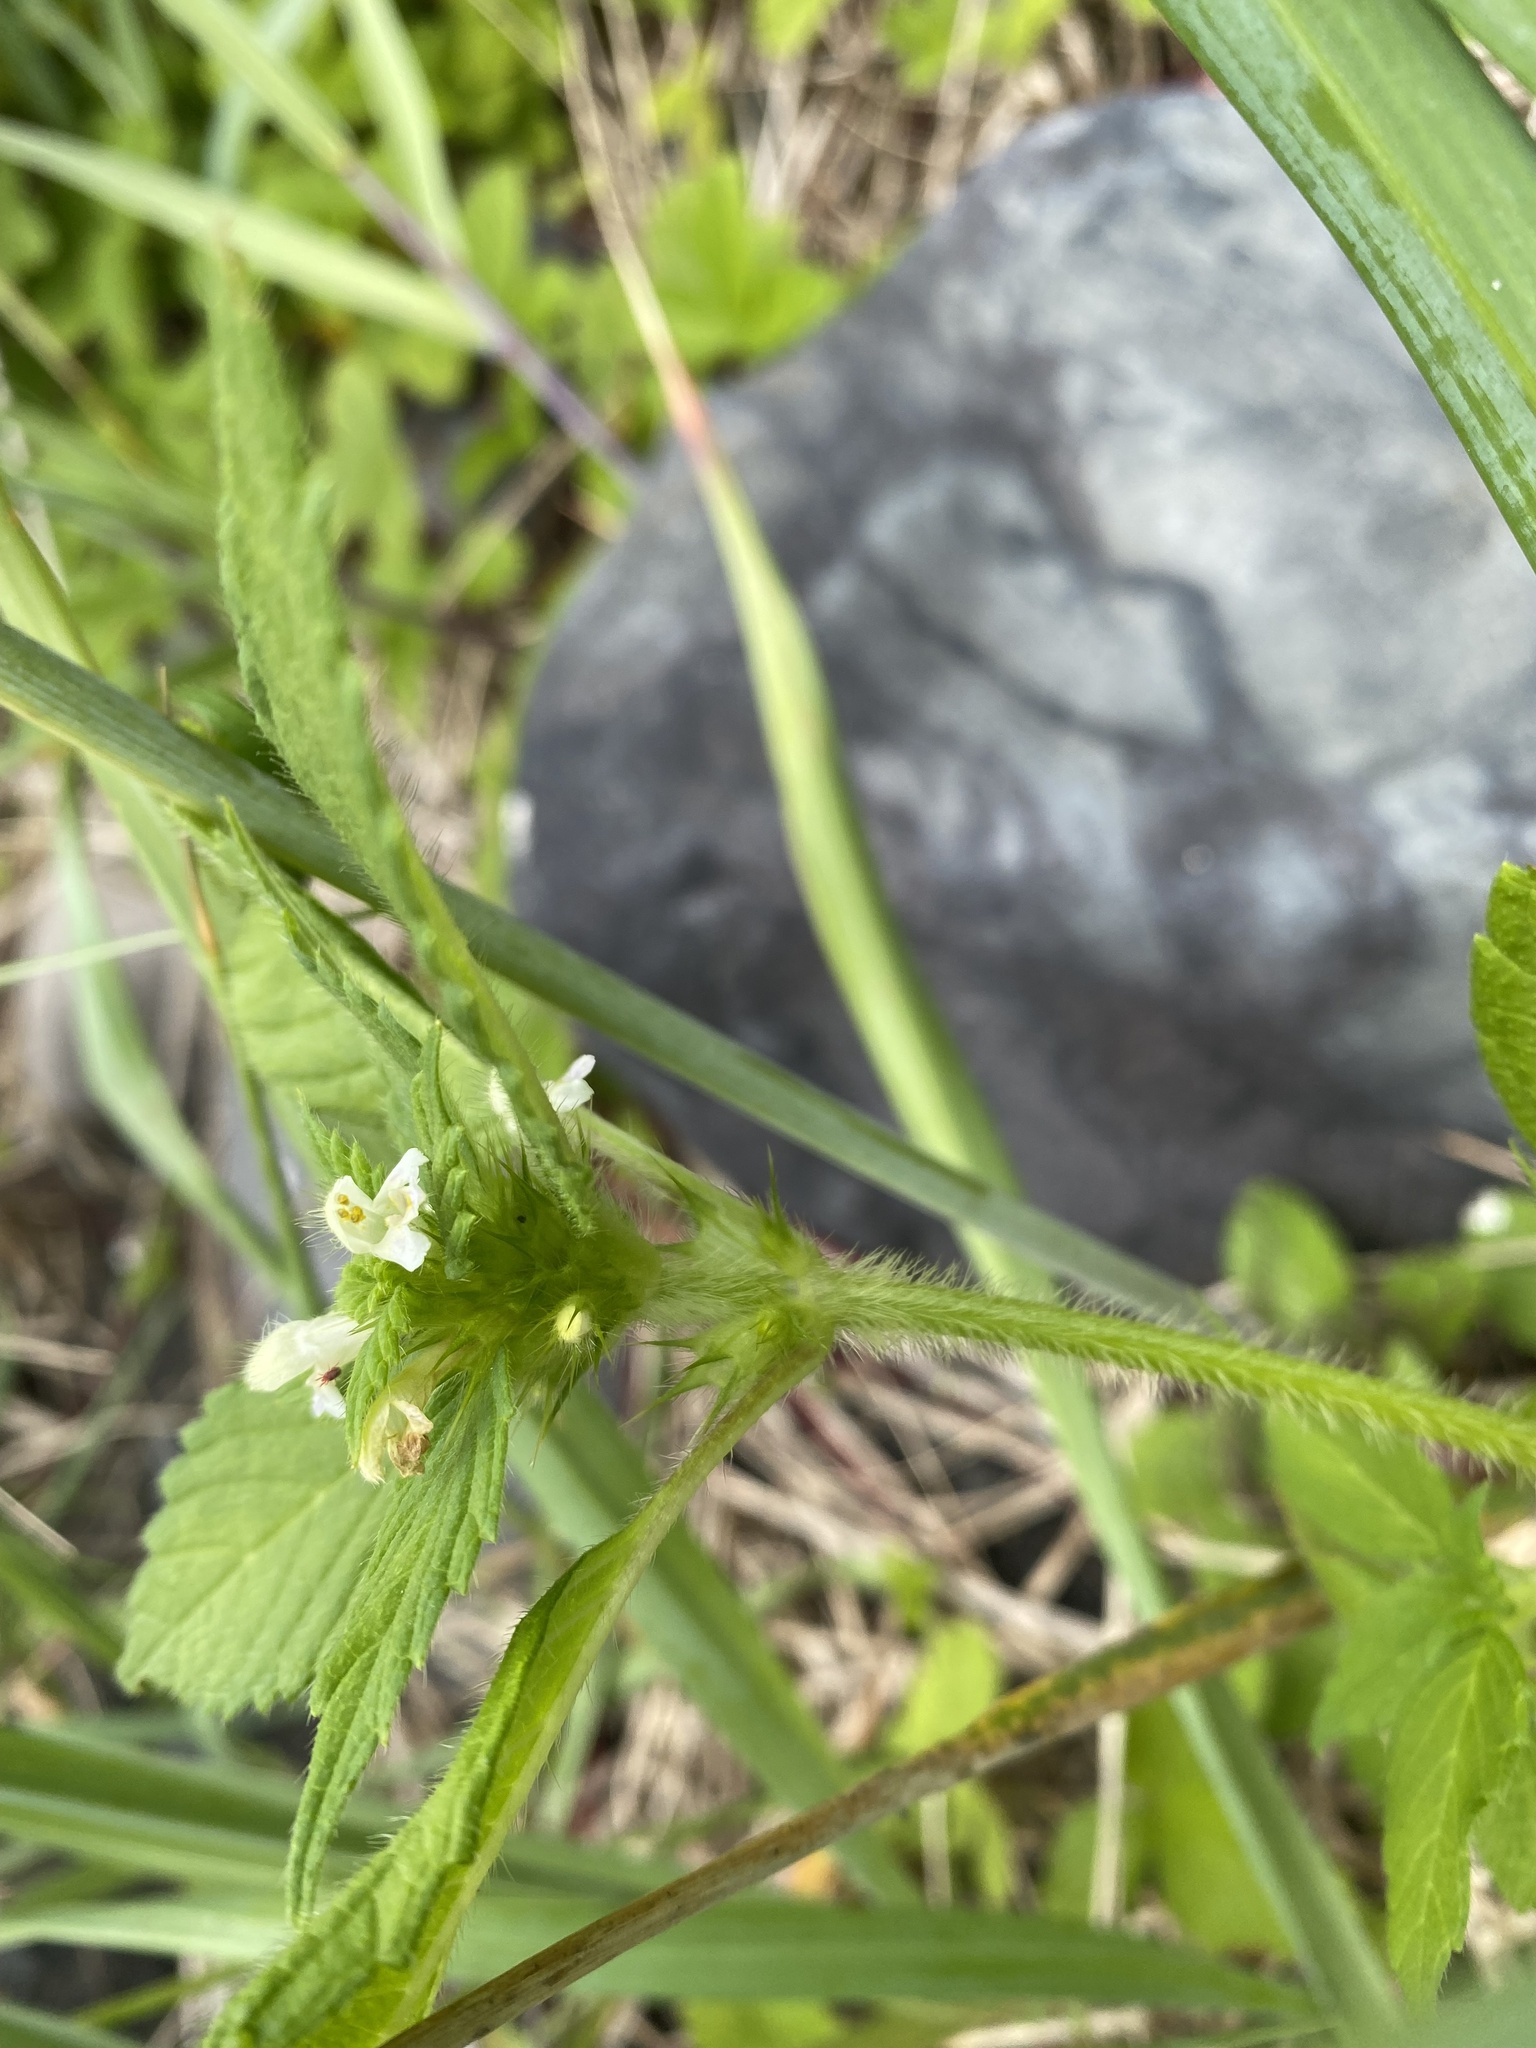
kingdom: Plantae
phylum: Tracheophyta
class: Magnoliopsida
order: Lamiales
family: Lamiaceae
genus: Galeopsis
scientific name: Galeopsis bifida
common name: Bifid hemp-nettle
